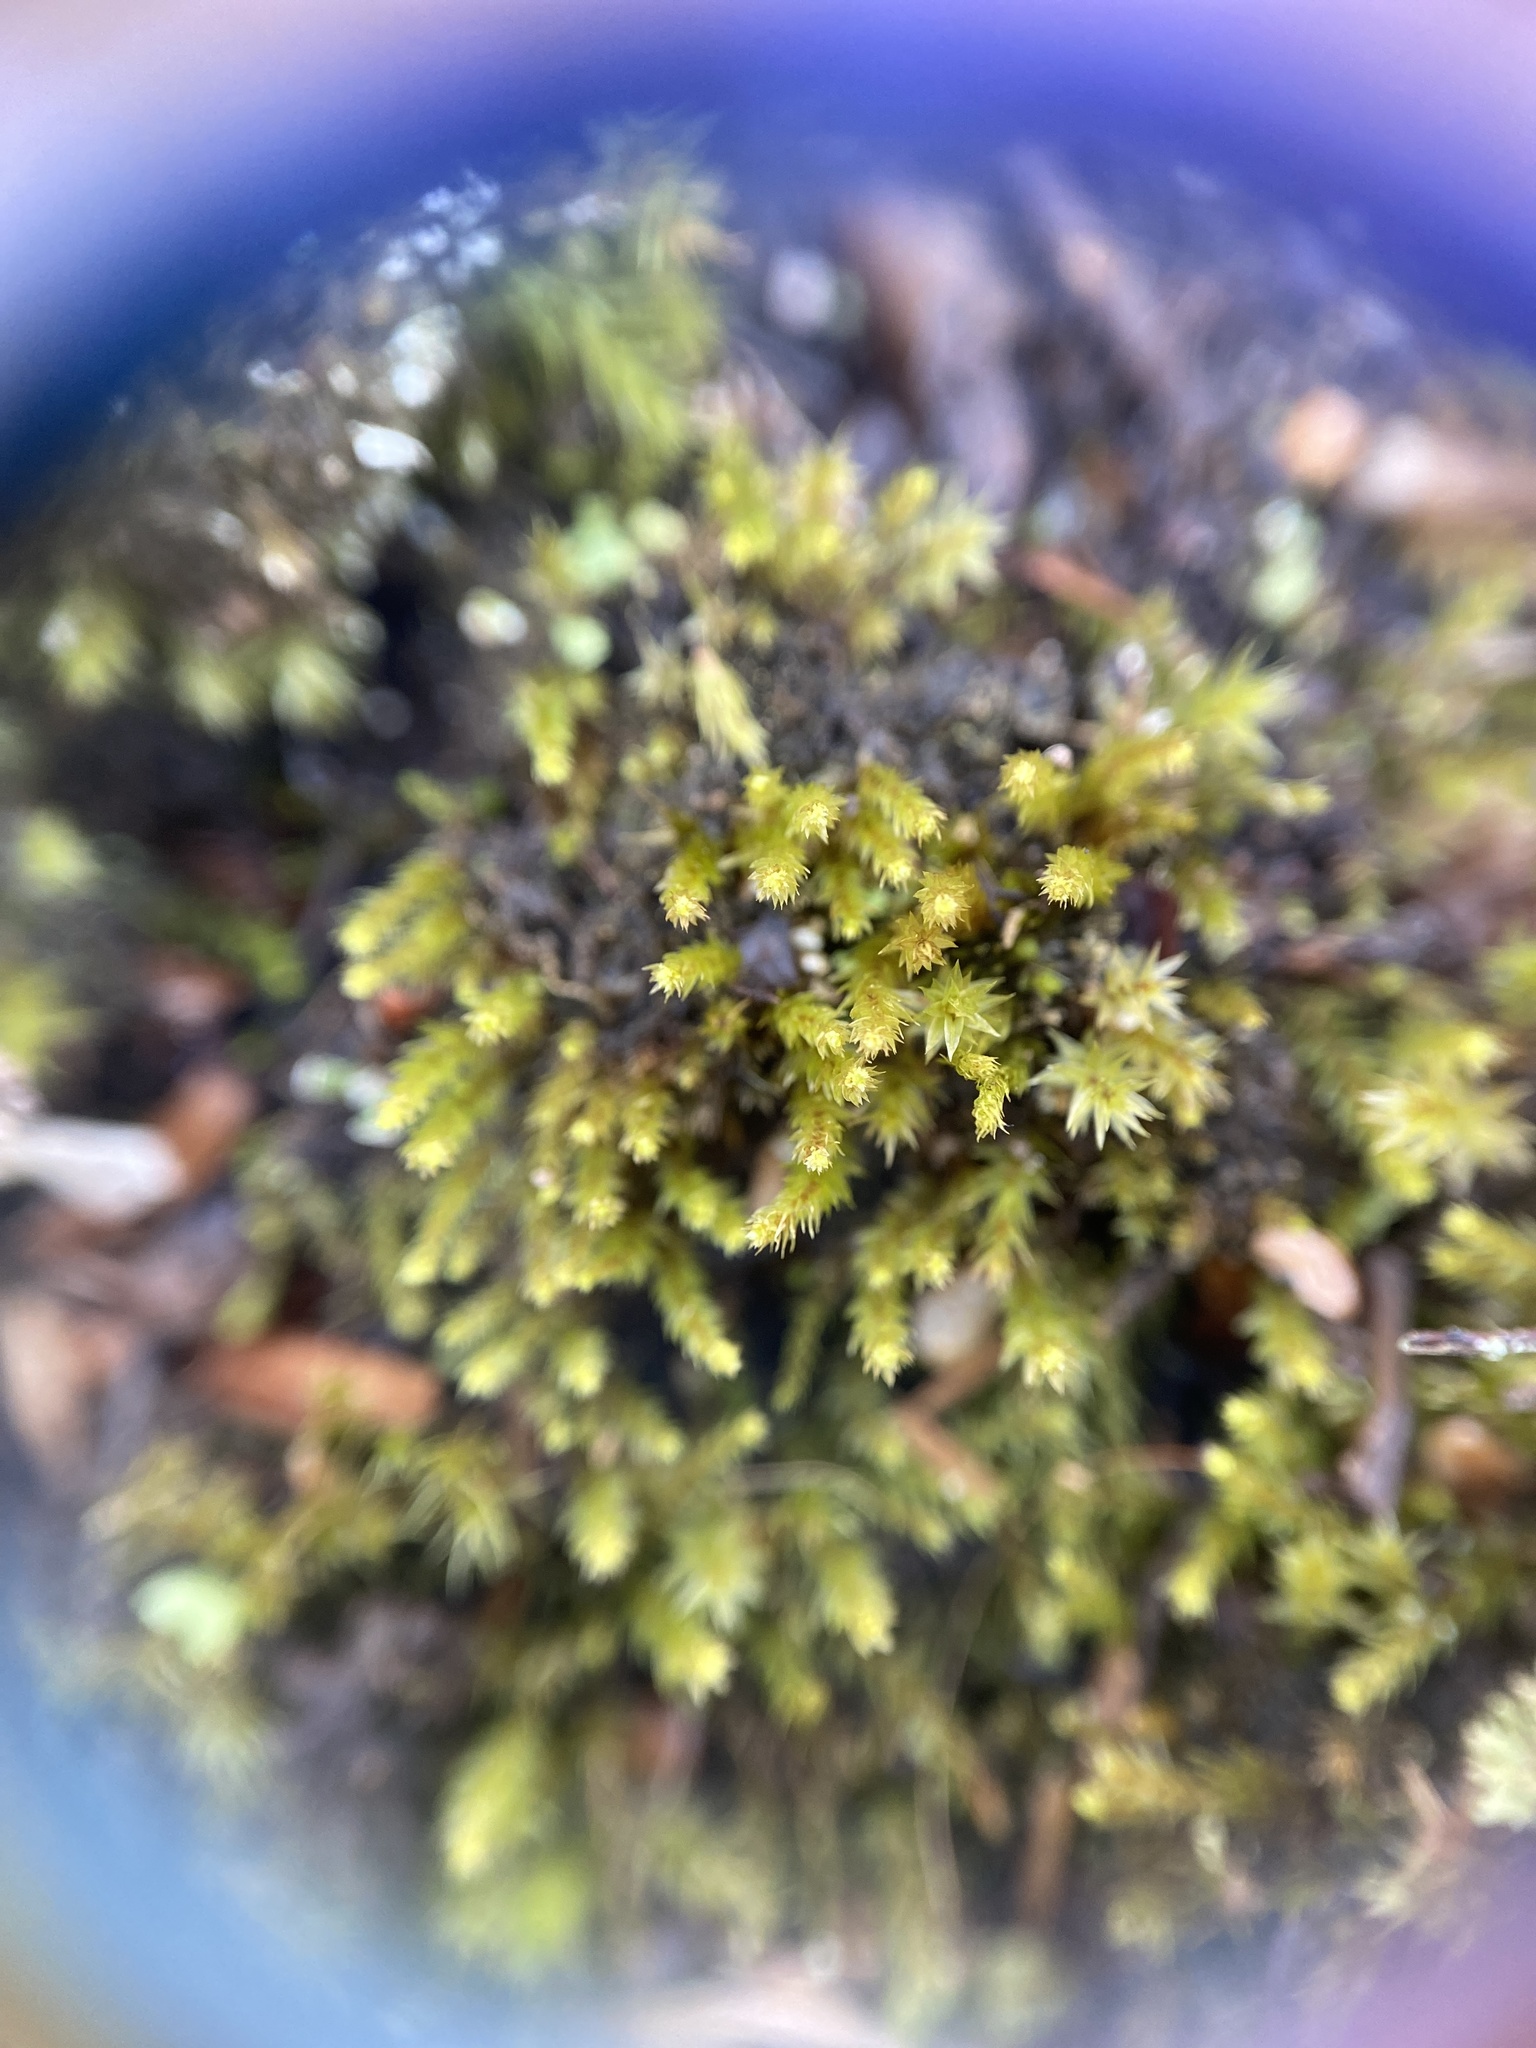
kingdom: Plantae
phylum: Bryophyta
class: Bryopsida
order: Bryales
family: Mniaceae
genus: Pohlia
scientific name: Pohlia annotina
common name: Pale-fruited nodding moss
